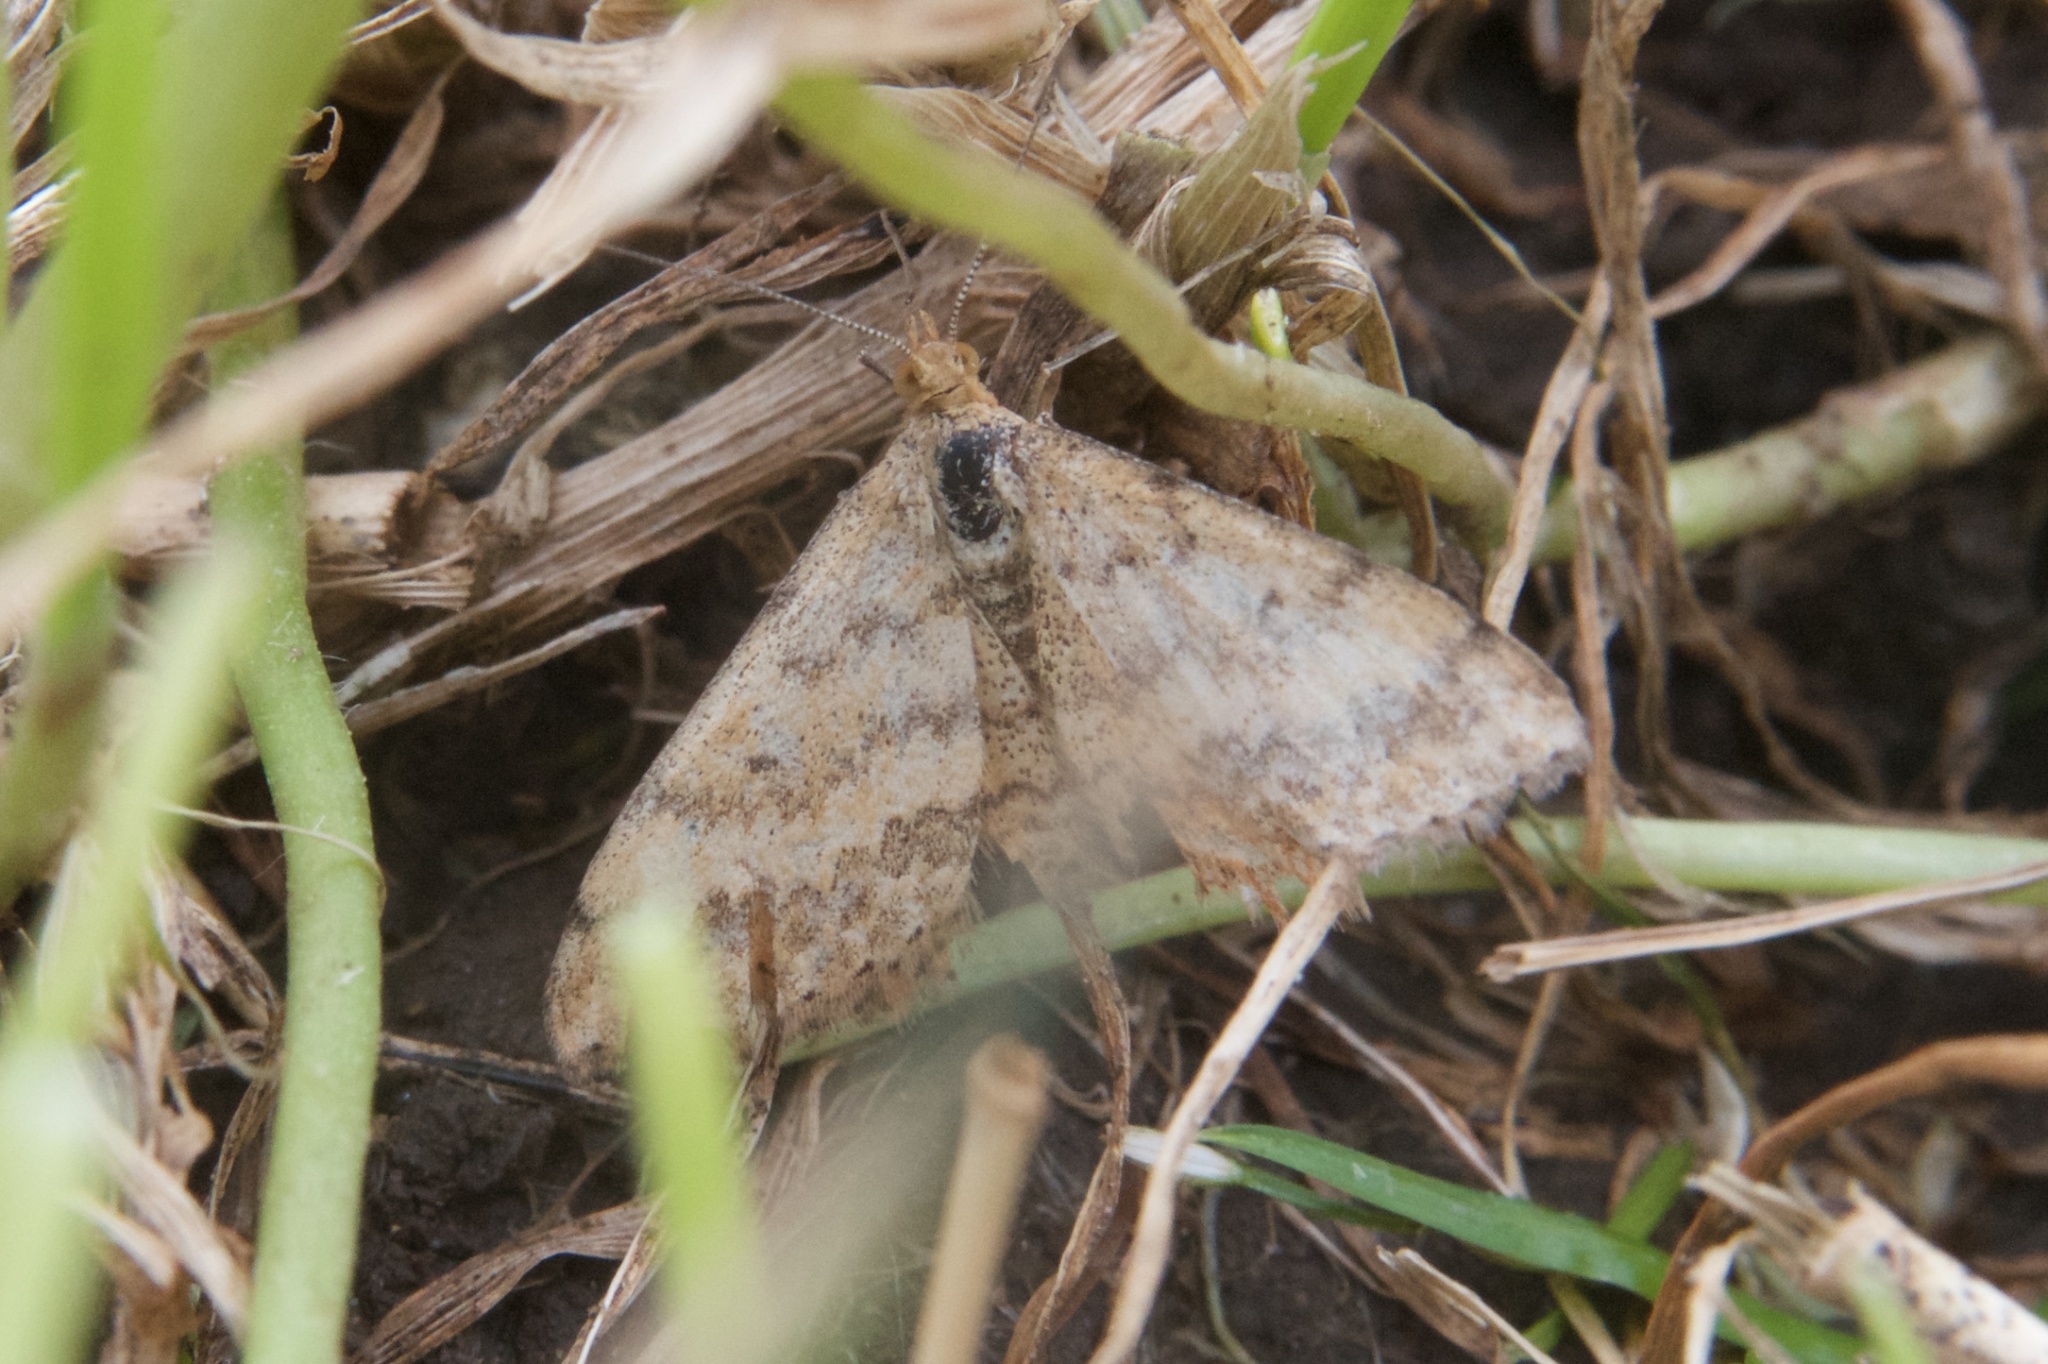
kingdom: Animalia
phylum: Arthropoda
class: Insecta
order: Lepidoptera
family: Geometridae
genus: Scopula
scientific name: Scopula rubraria
